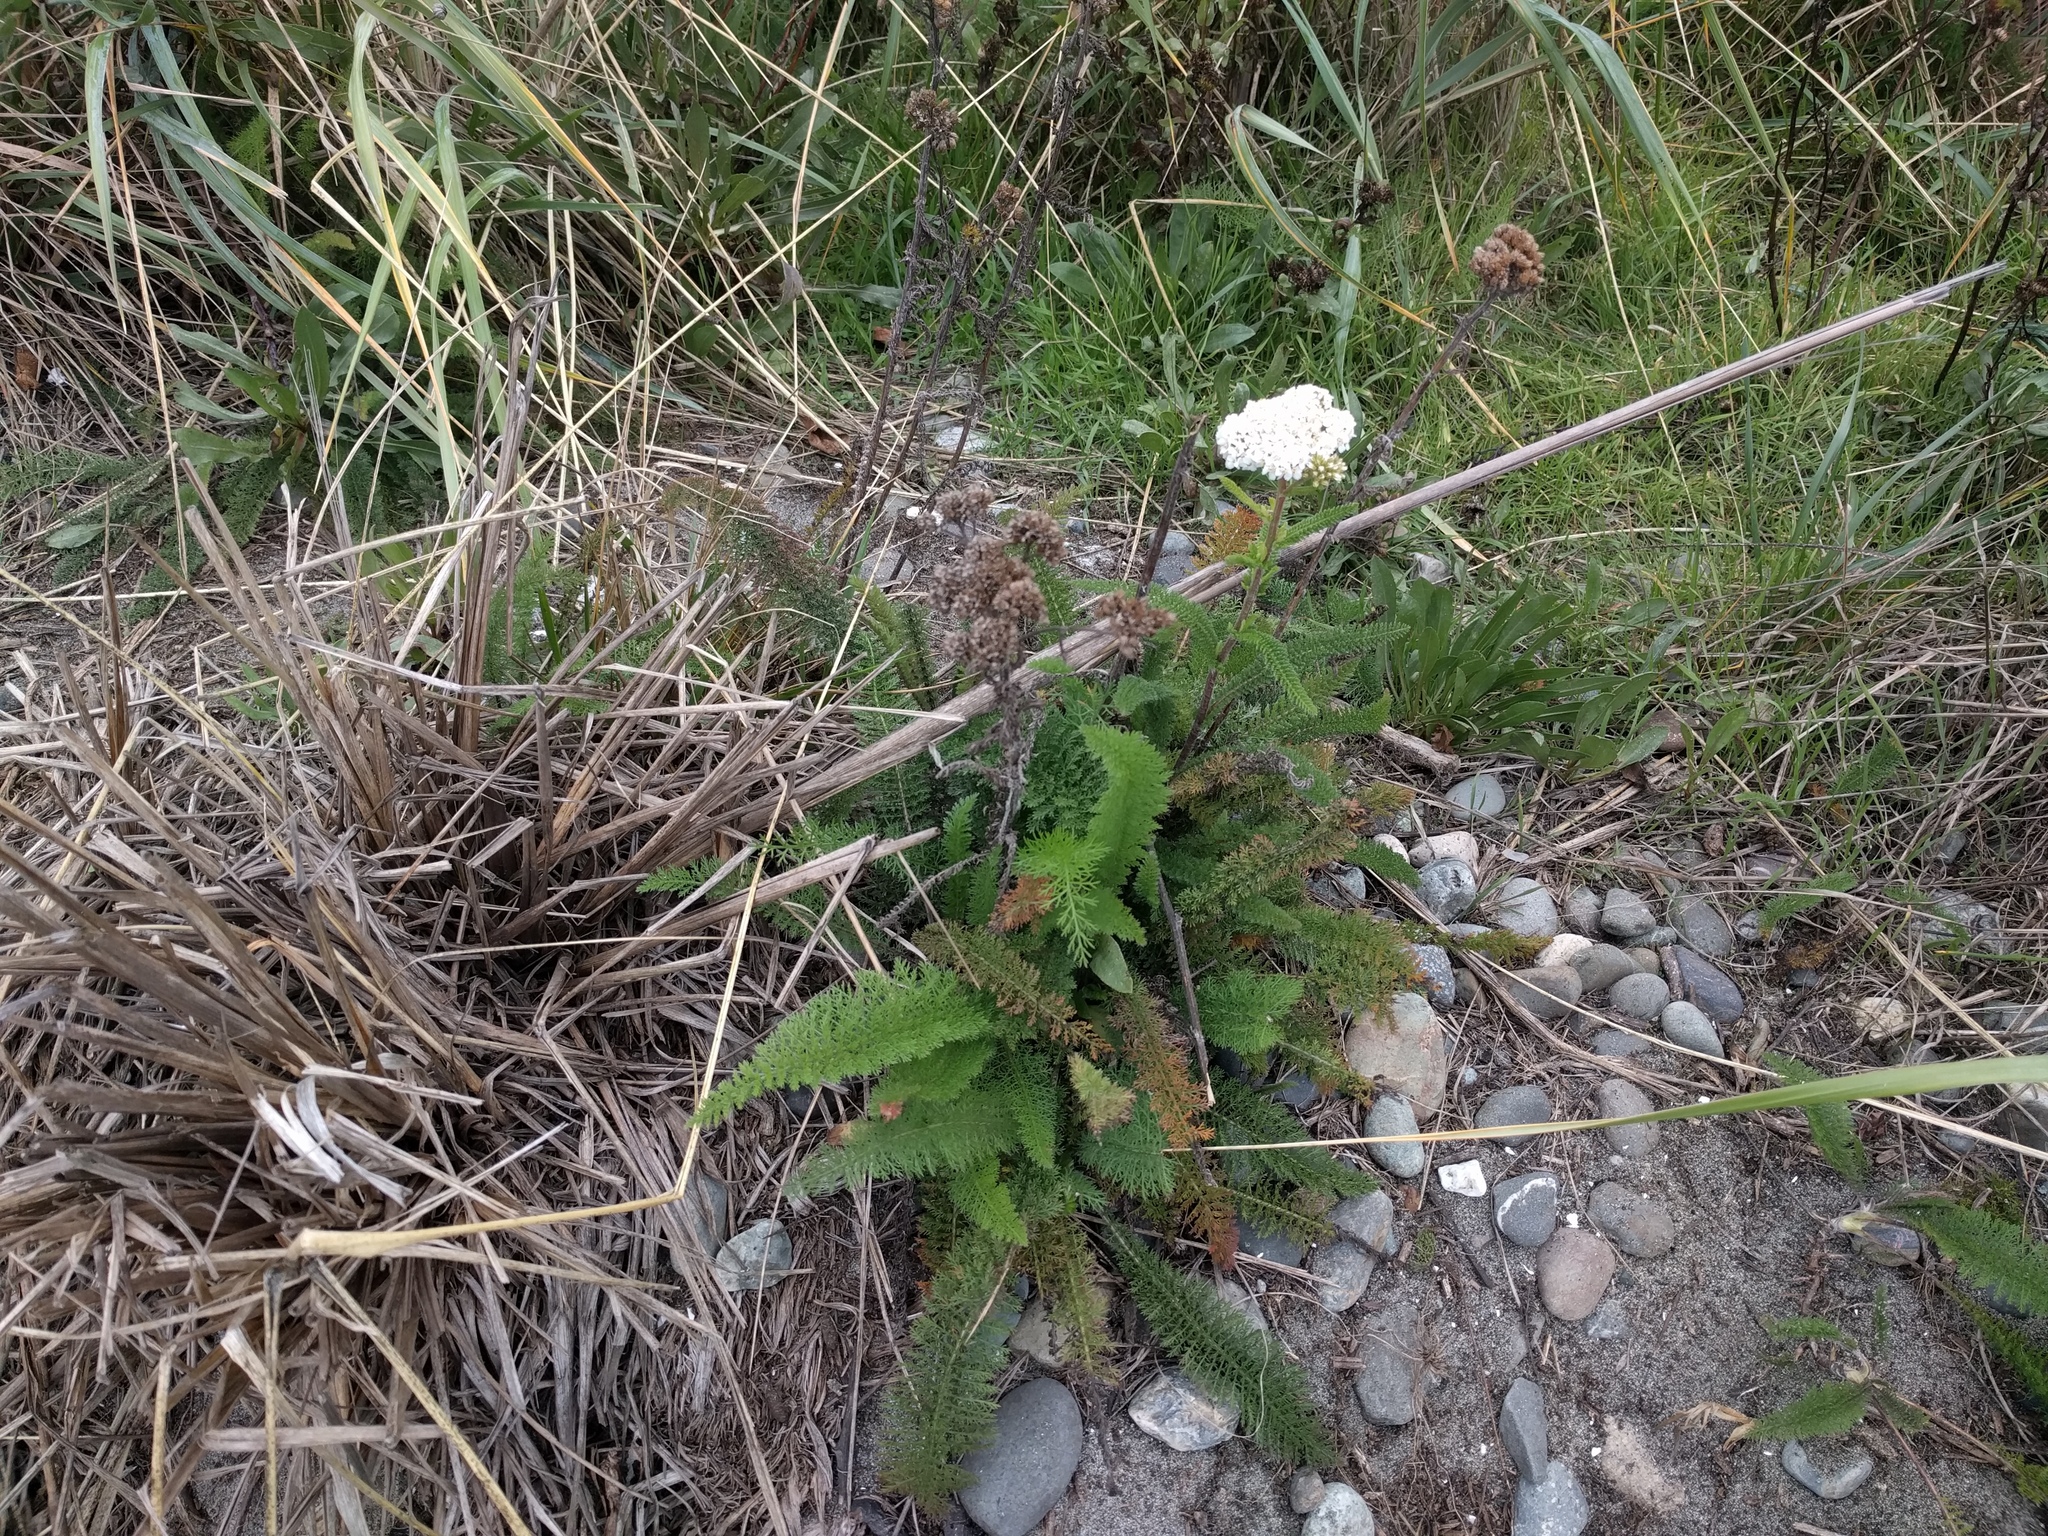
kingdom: Plantae
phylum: Tracheophyta
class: Magnoliopsida
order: Asterales
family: Asteraceae
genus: Achillea
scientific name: Achillea millefolium
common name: Yarrow
